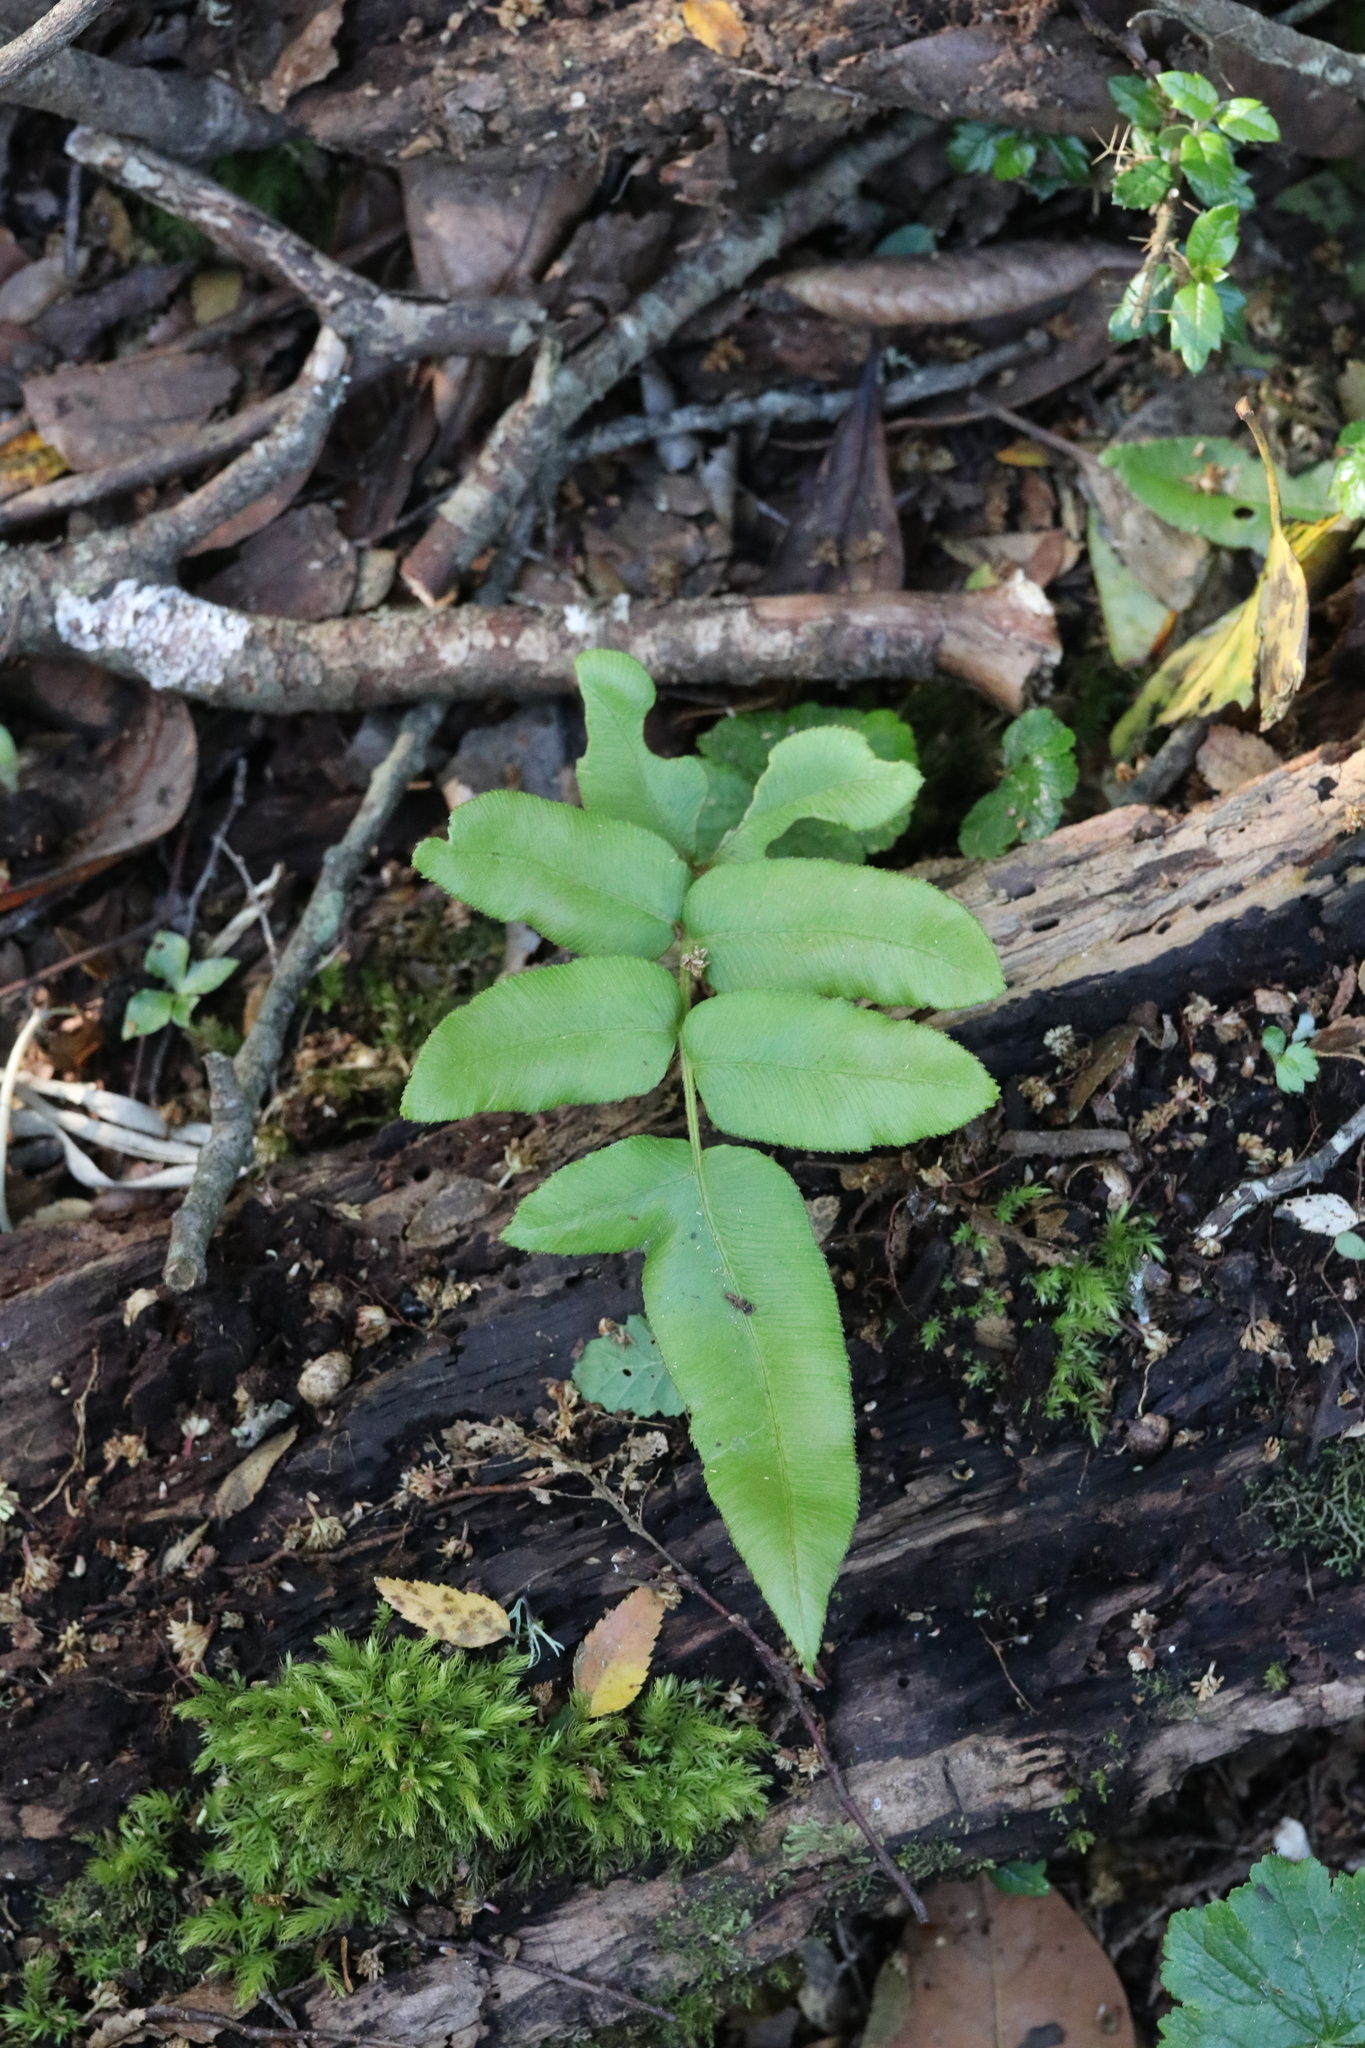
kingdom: Plantae
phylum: Tracheophyta
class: Polypodiopsida
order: Polypodiales
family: Blechnaceae
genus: Parablechnum
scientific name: Parablechnum chilense
